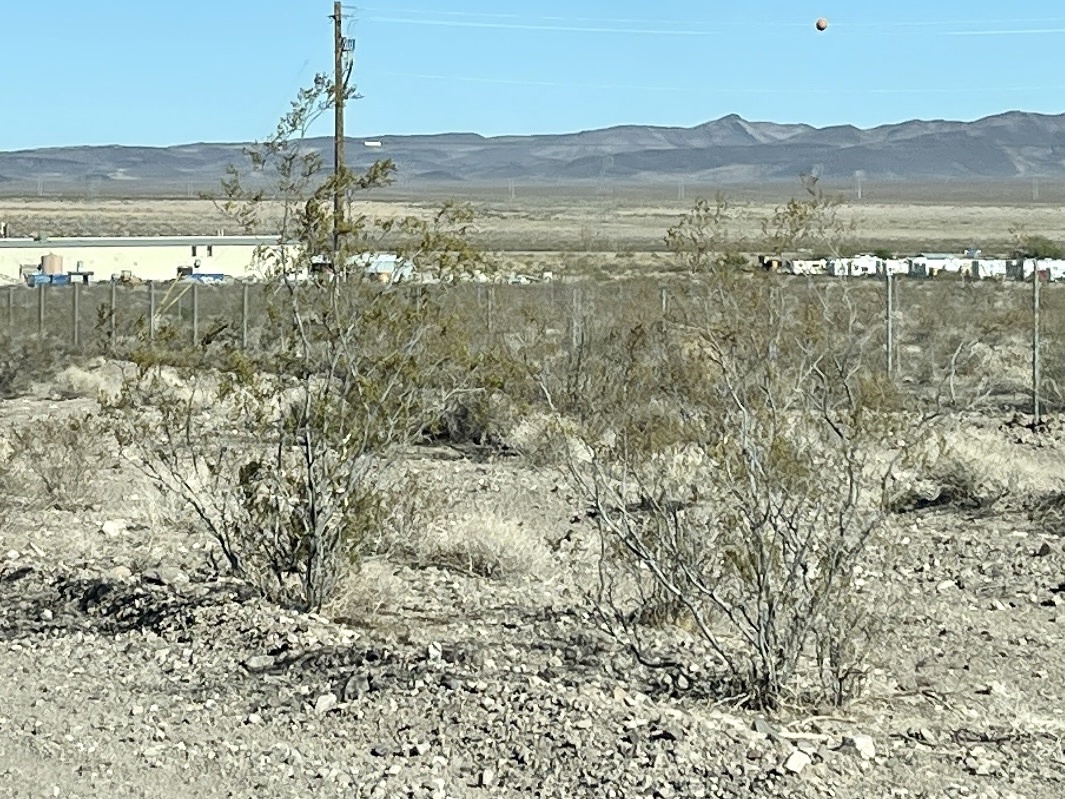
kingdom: Plantae
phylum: Tracheophyta
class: Magnoliopsida
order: Zygophyllales
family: Zygophyllaceae
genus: Larrea
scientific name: Larrea tridentata
